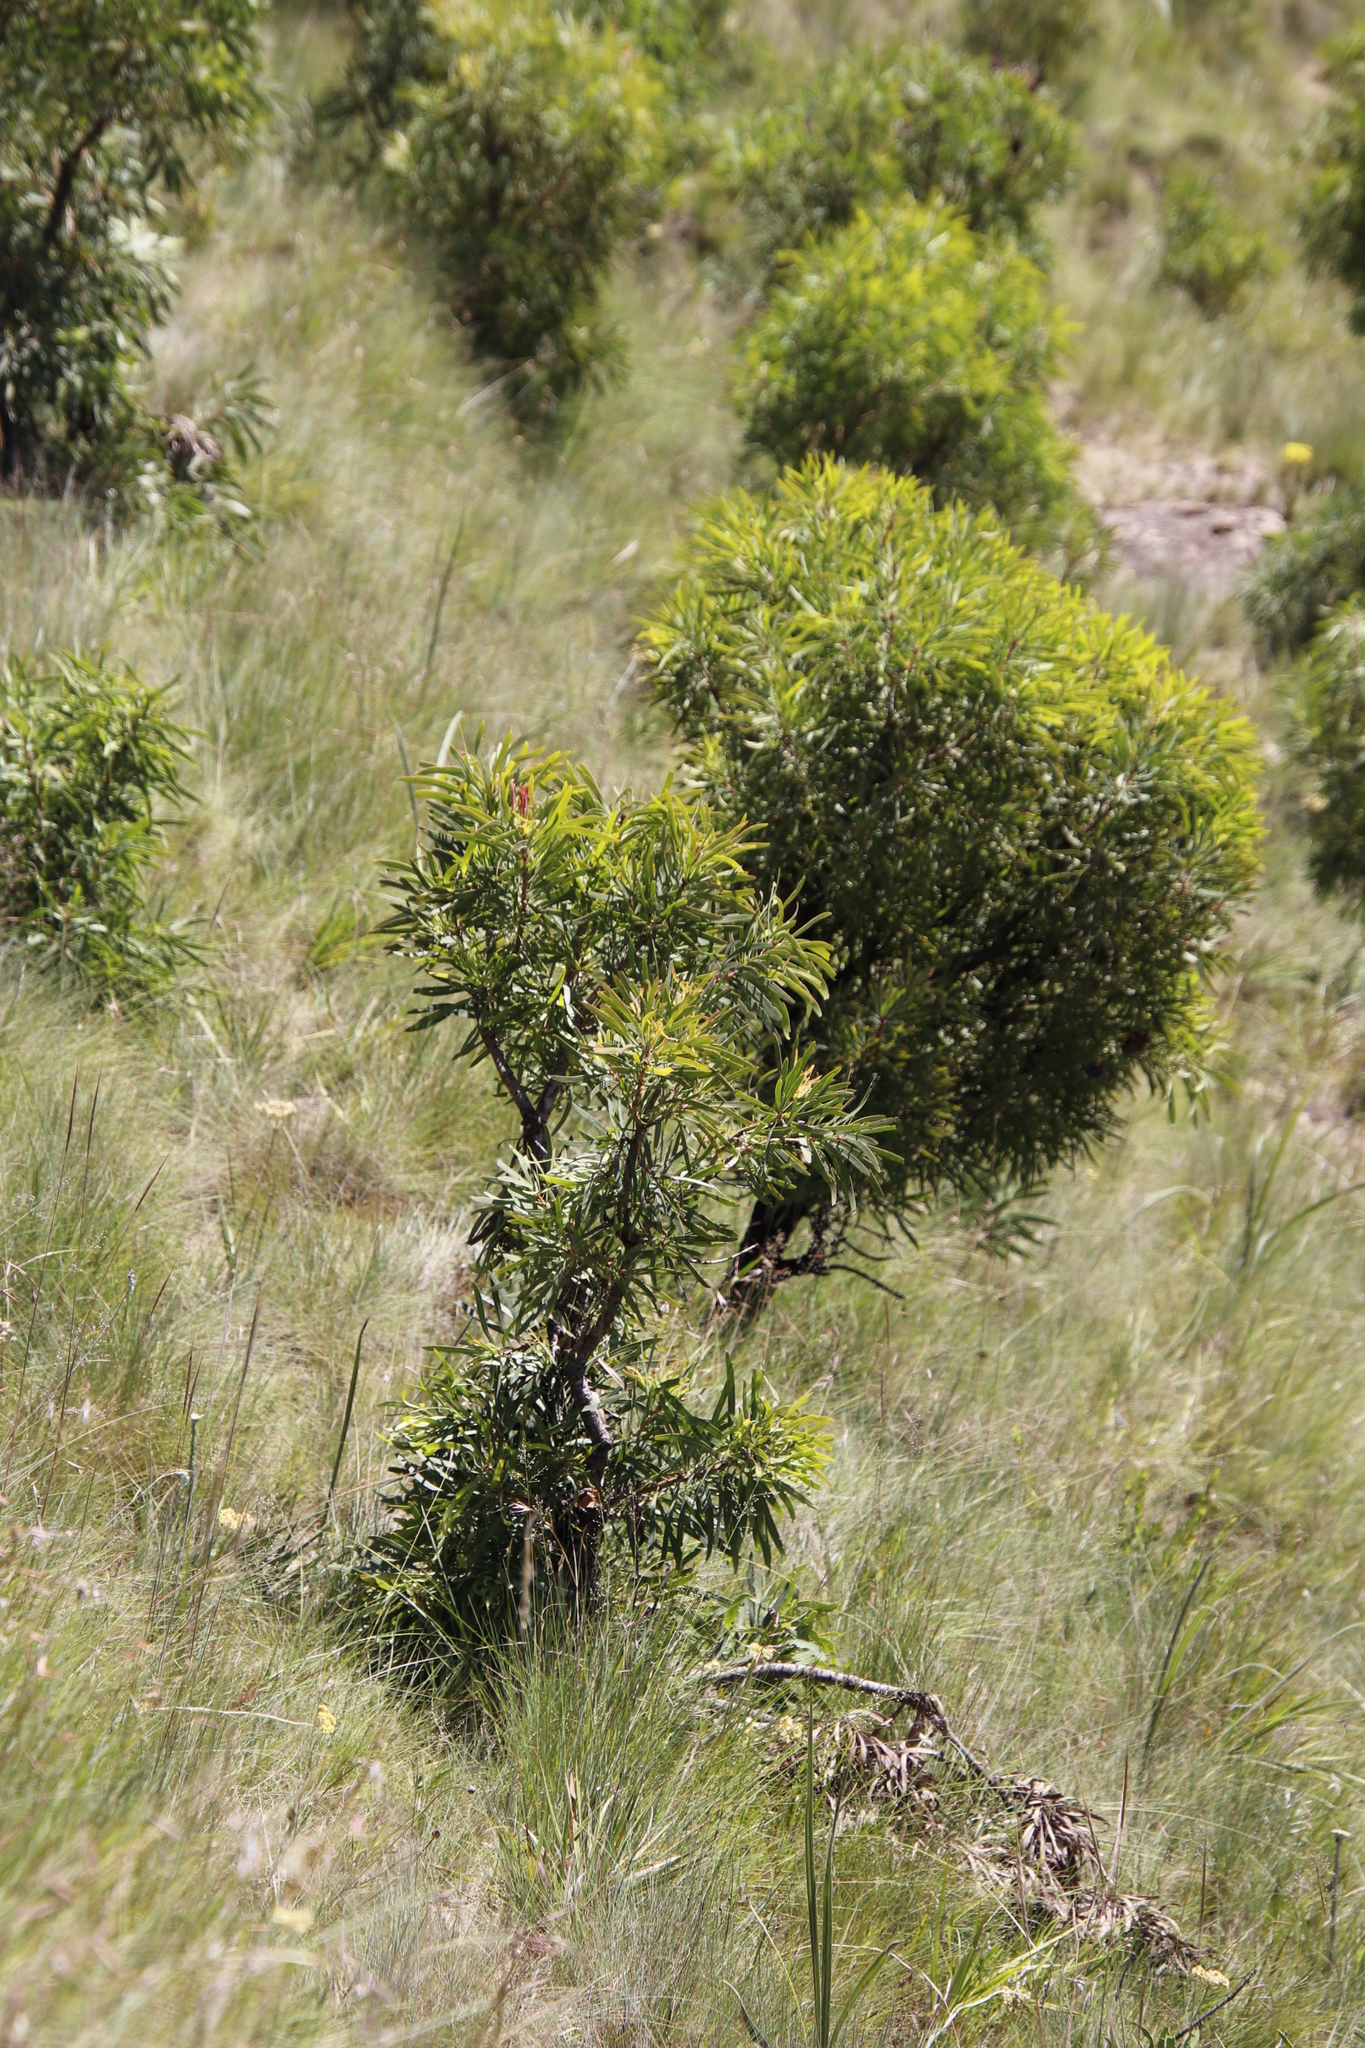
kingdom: Plantae
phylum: Tracheophyta
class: Magnoliopsida
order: Proteales
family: Proteaceae
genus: Protea
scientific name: Protea caffra
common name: Common sugarbush
